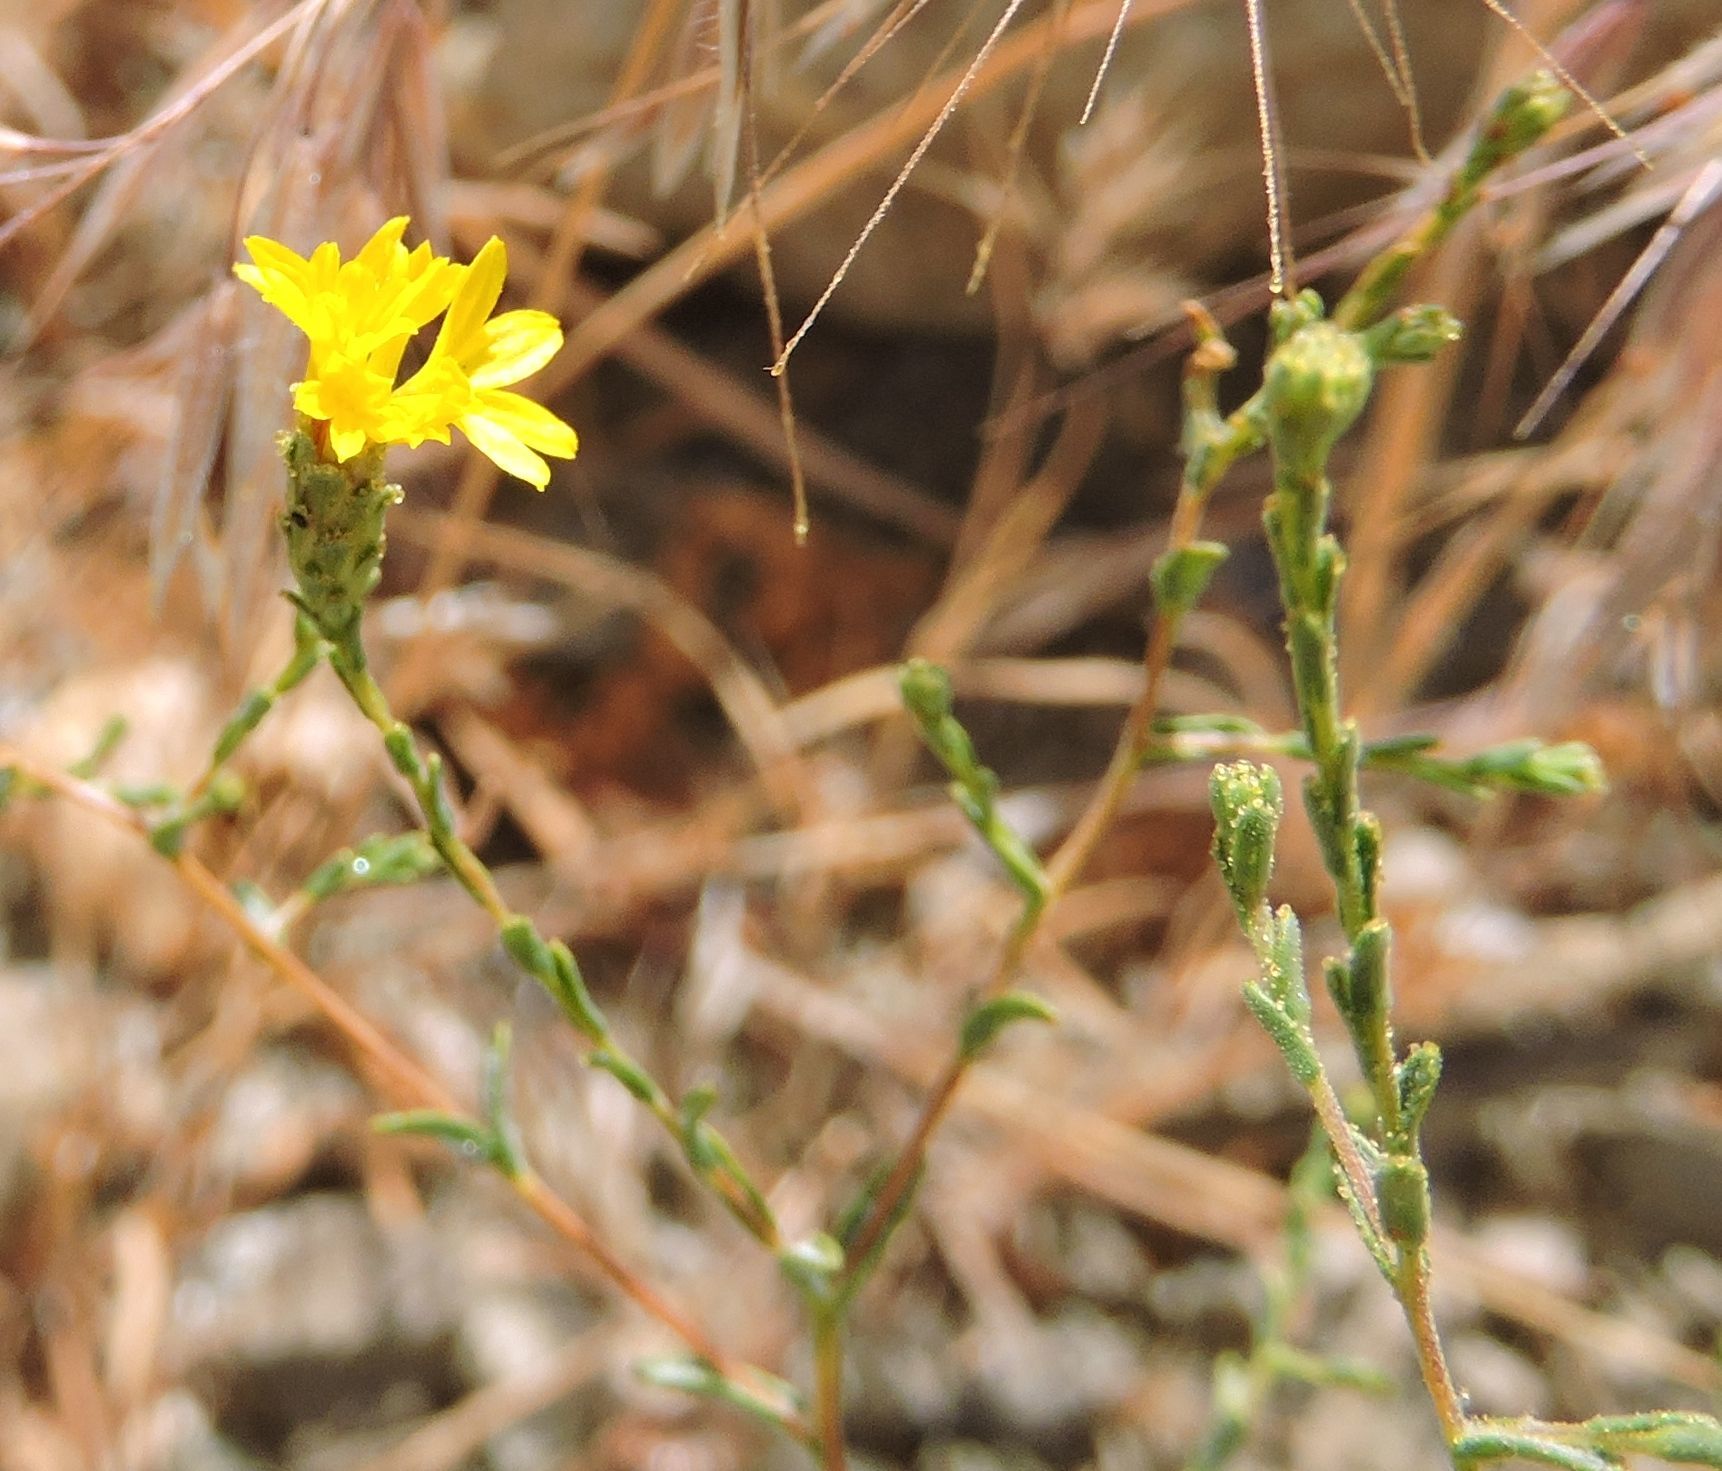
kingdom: Plantae
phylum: Tracheophyta
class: Magnoliopsida
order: Asterales
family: Asteraceae
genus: Lessingia
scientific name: Lessingia glandulifera
